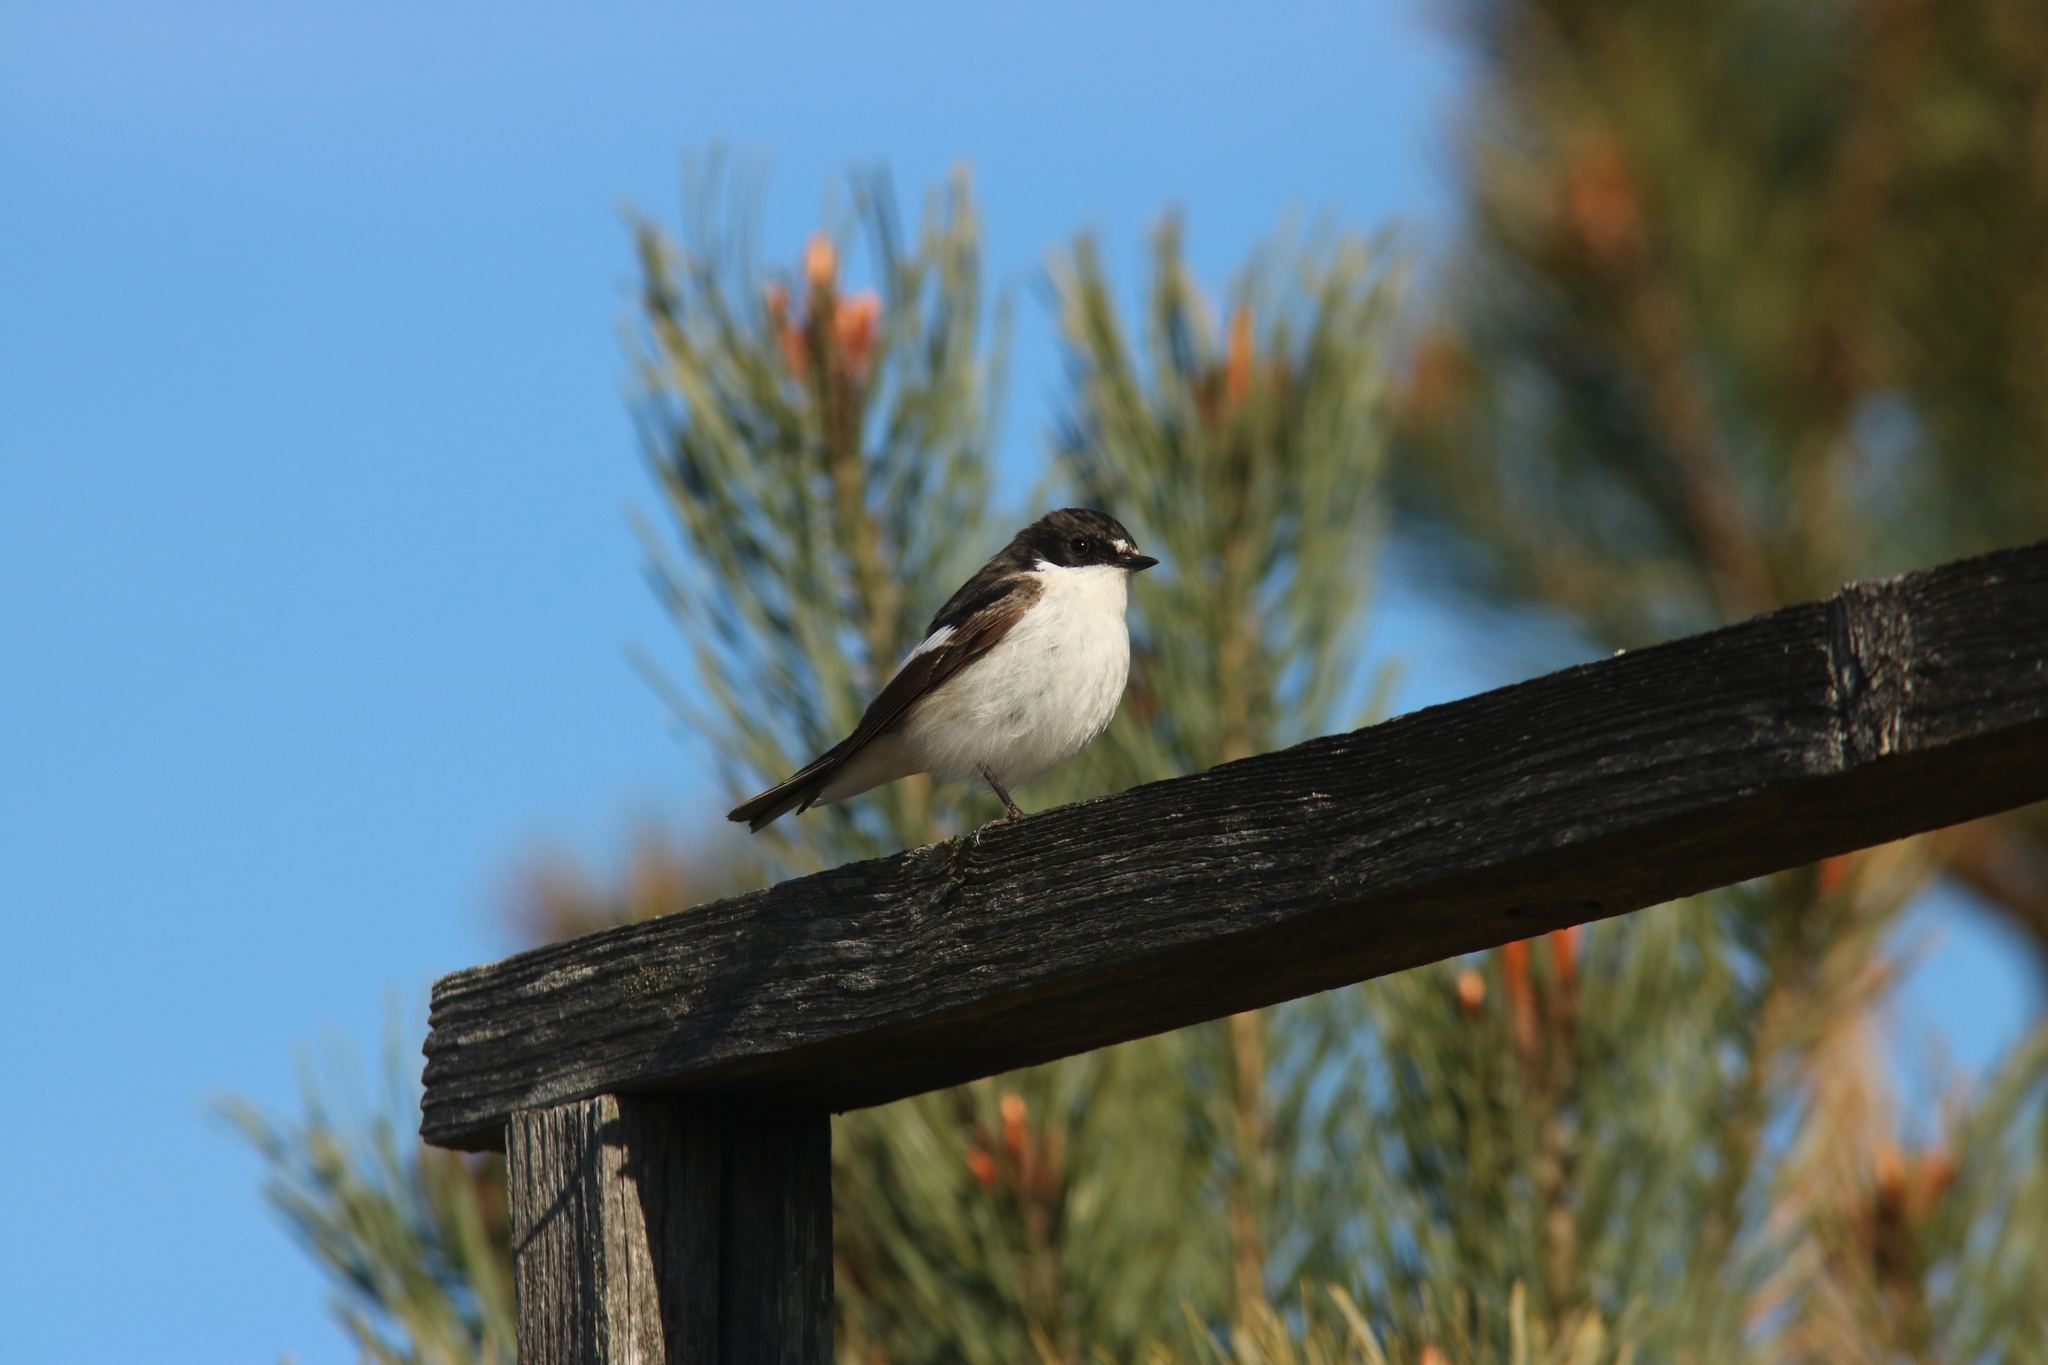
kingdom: Animalia
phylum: Chordata
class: Aves
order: Passeriformes
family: Muscicapidae
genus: Ficedula
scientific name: Ficedula hypoleuca
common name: European pied flycatcher
